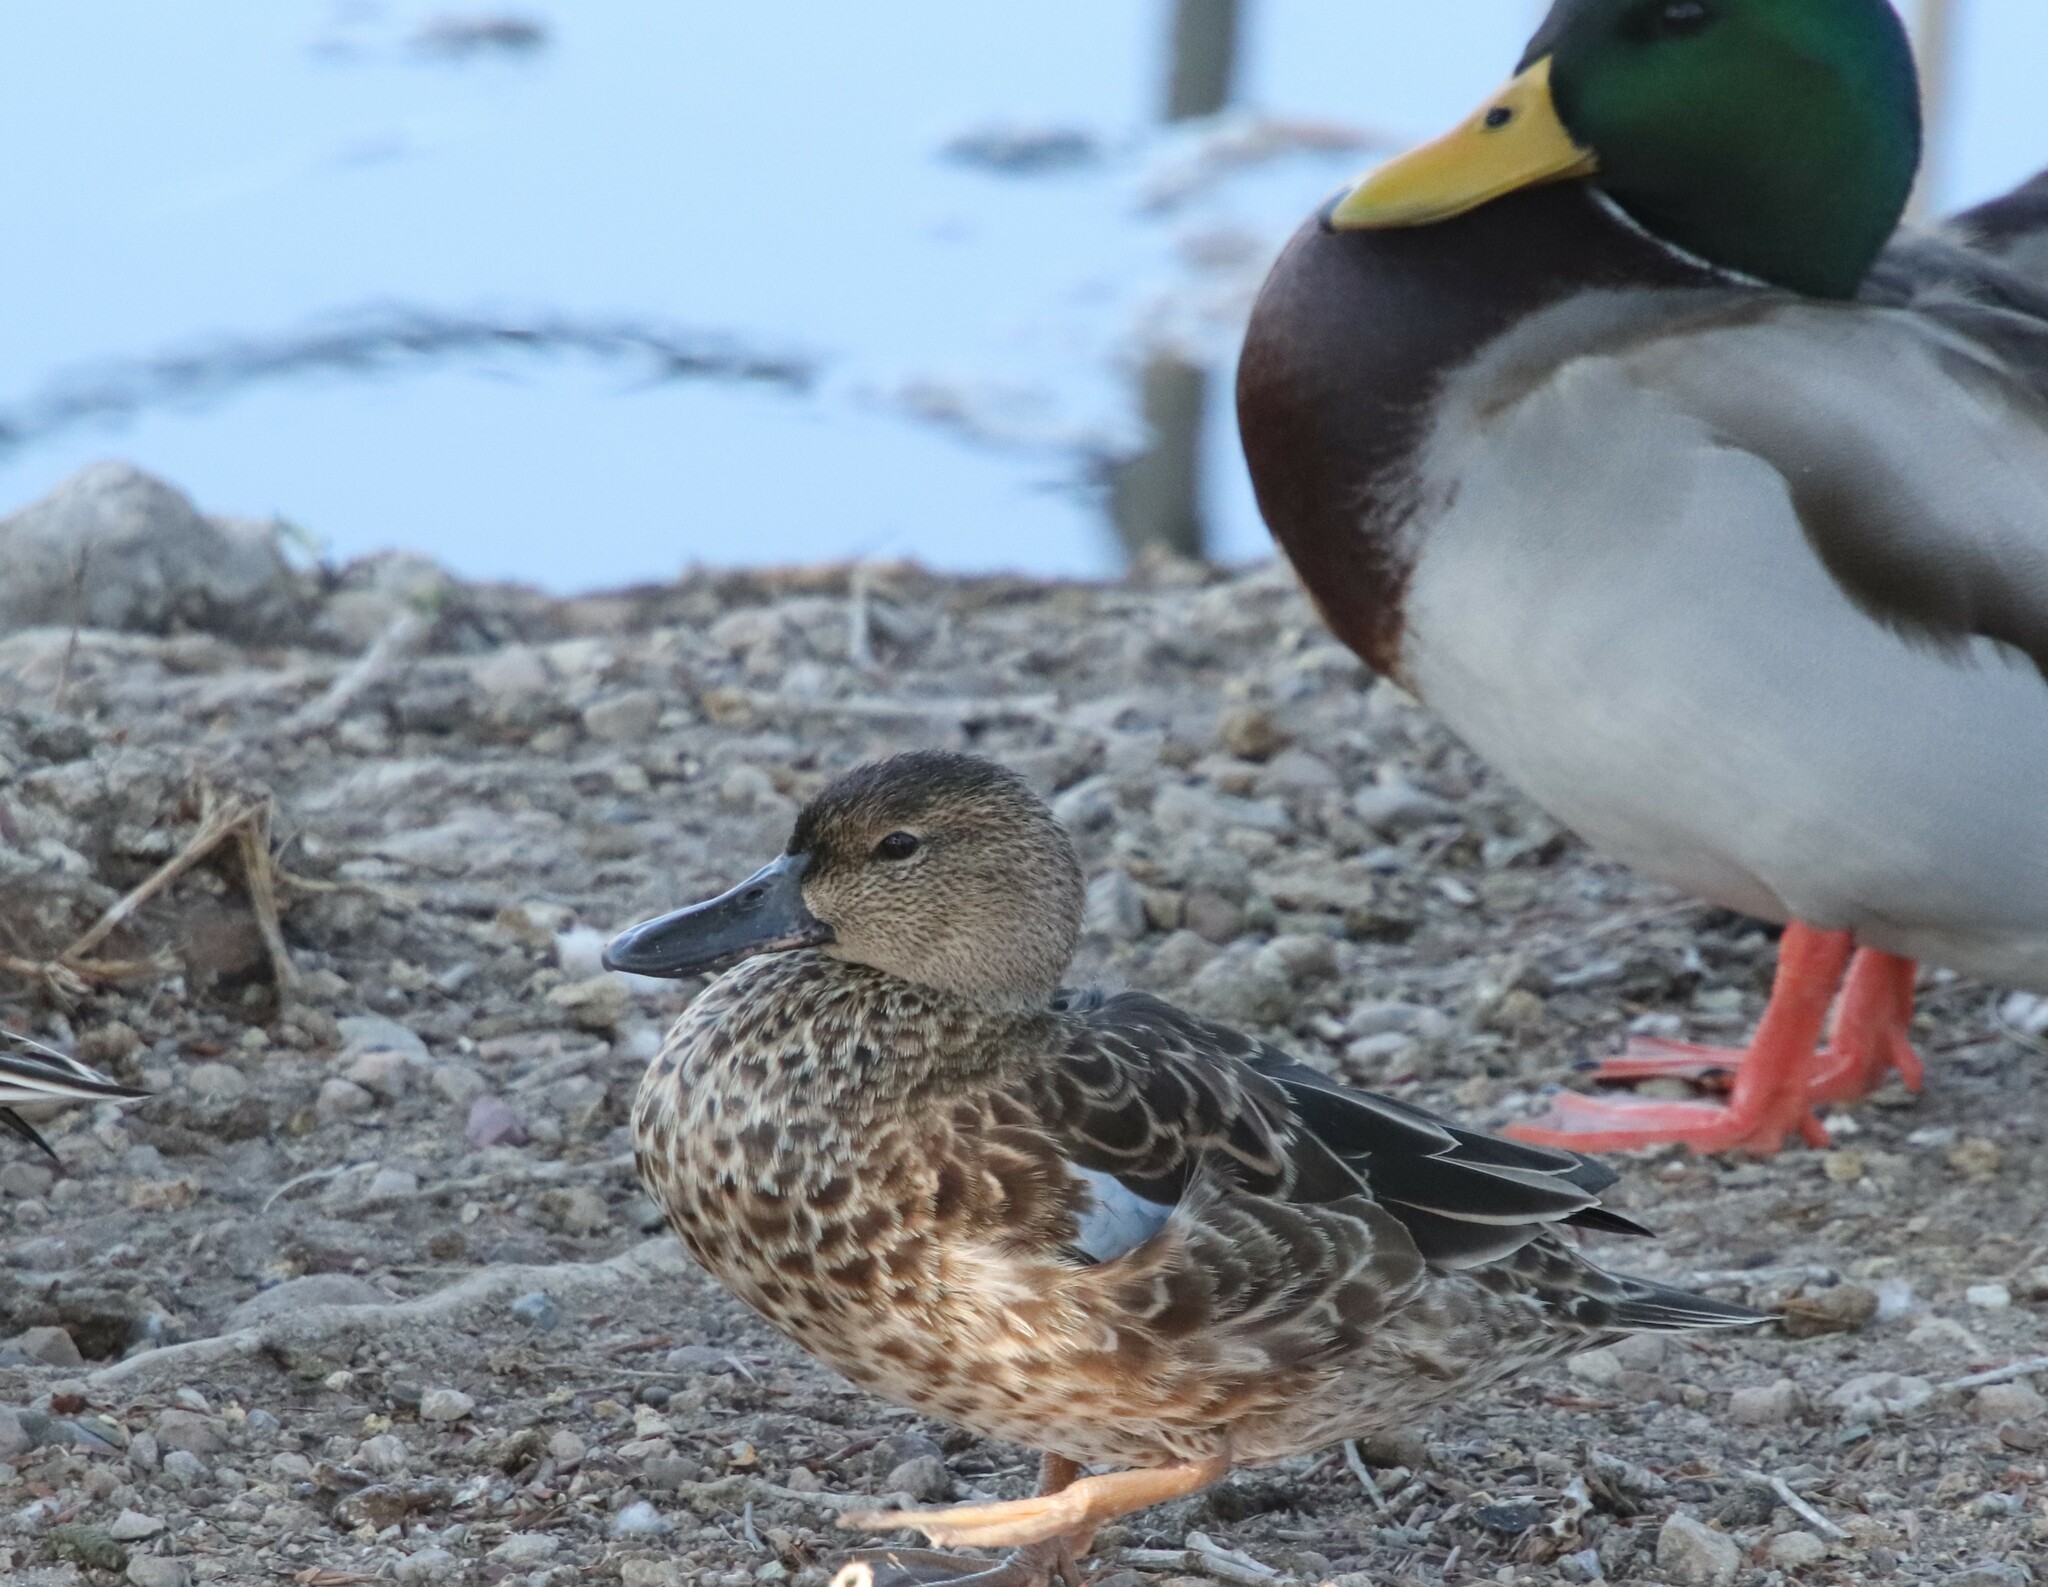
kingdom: Animalia
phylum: Chordata
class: Aves
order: Anseriformes
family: Anatidae
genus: Spatula
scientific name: Spatula cyanoptera
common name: Cinnamon teal
